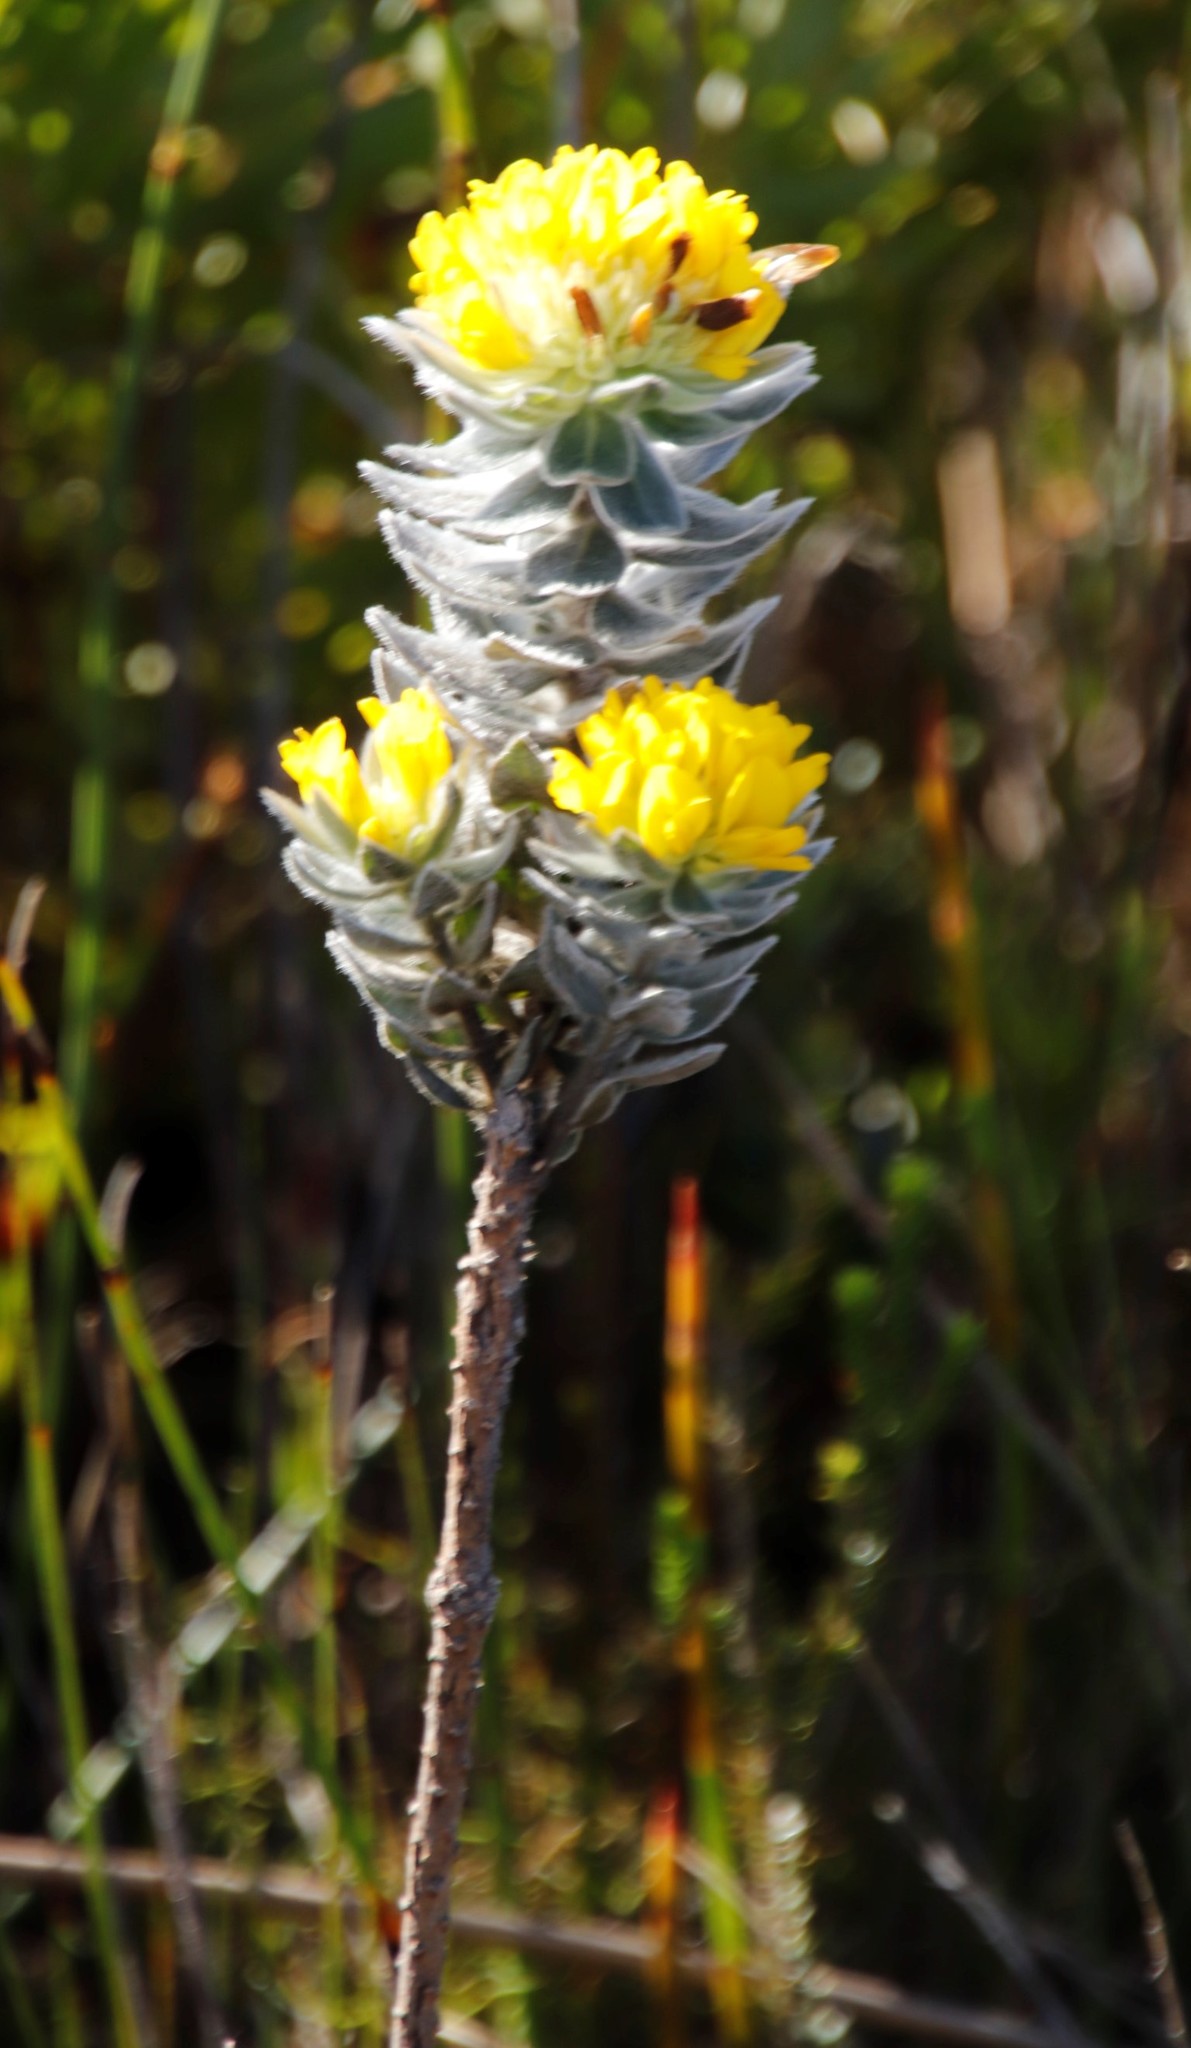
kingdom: Plantae
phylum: Tracheophyta
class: Magnoliopsida
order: Fabales
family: Fabaceae
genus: Xiphotheca
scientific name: Xiphotheca fruticosa
